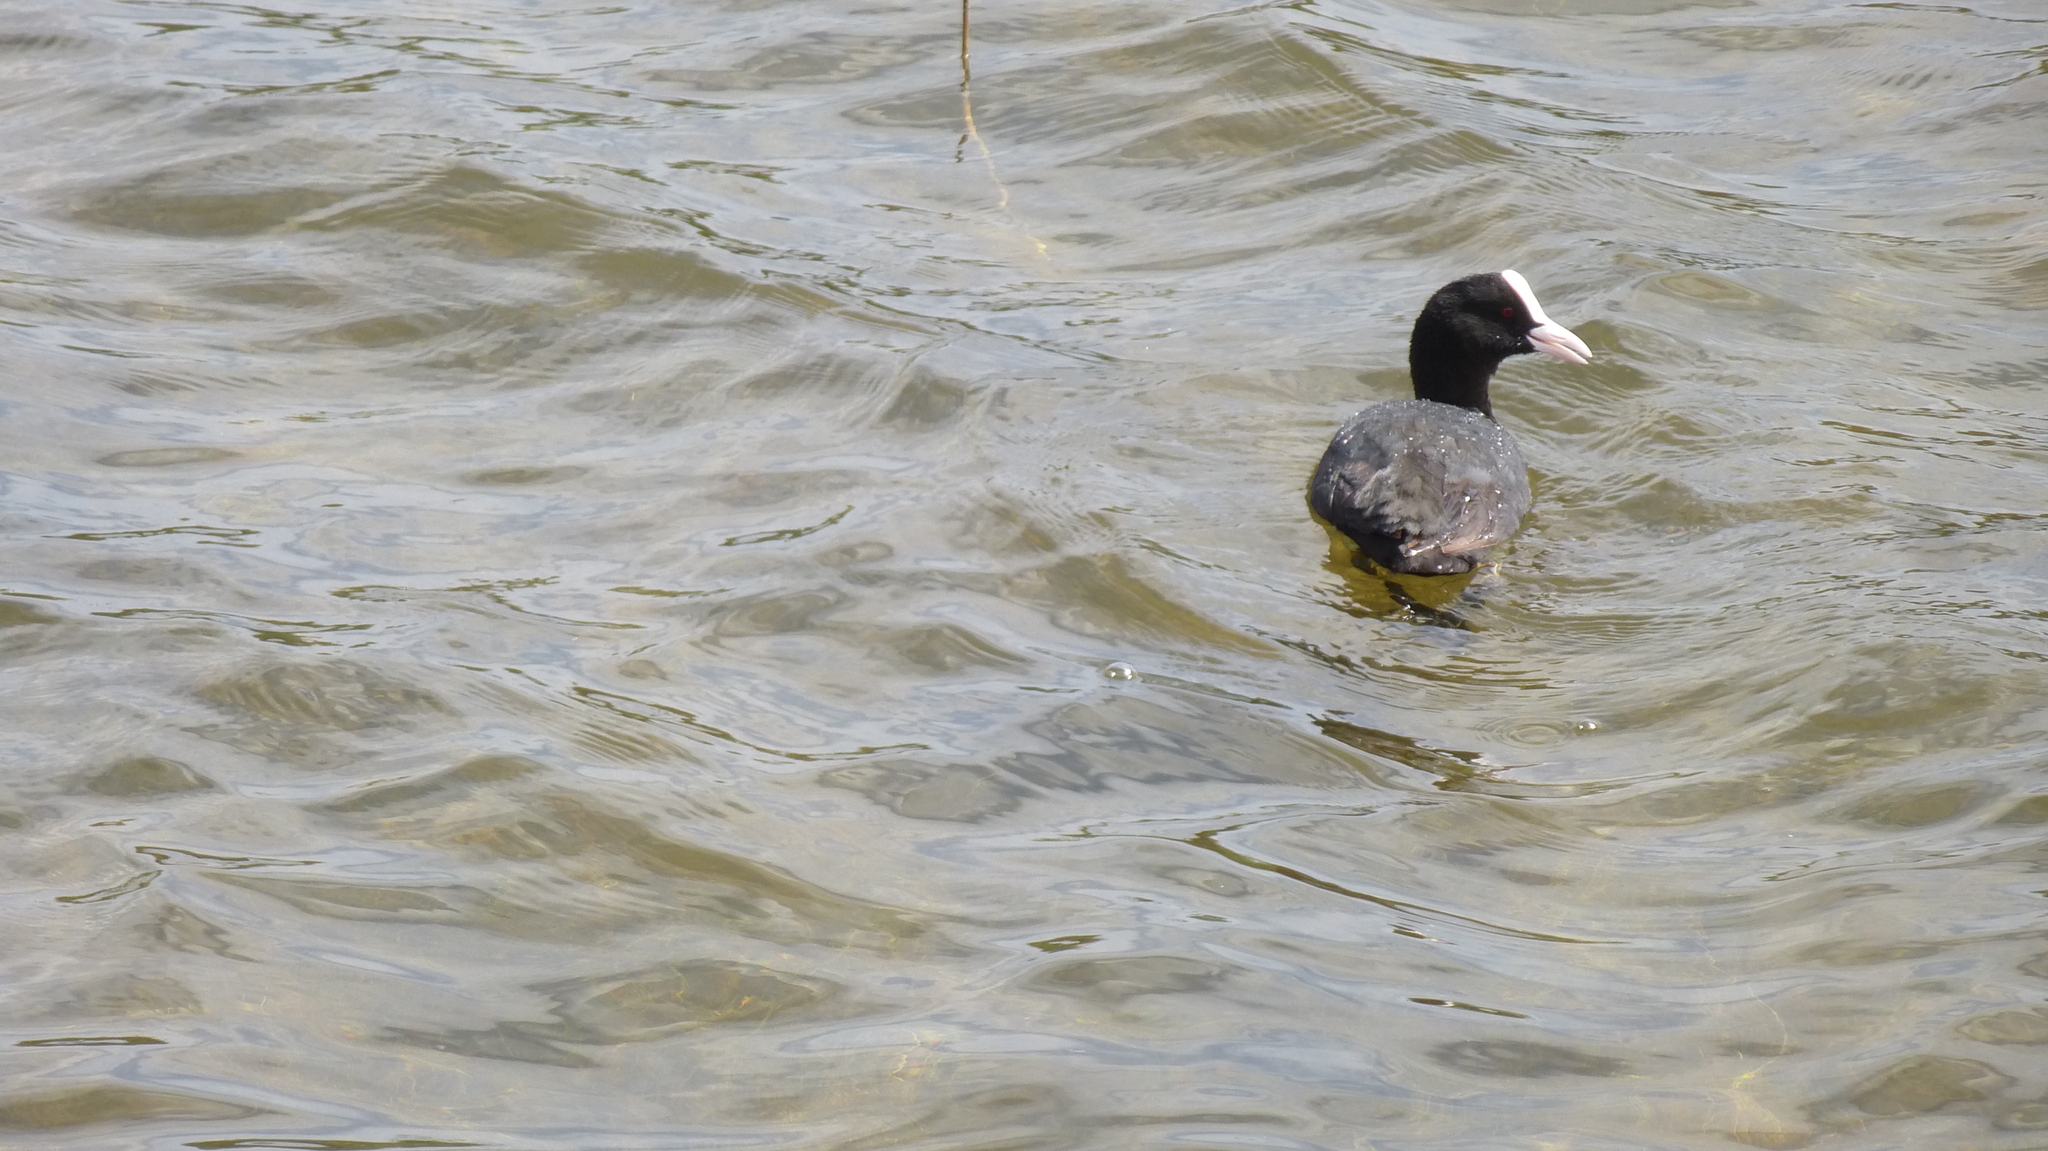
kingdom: Animalia
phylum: Chordata
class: Aves
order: Gruiformes
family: Rallidae
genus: Fulica
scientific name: Fulica atra
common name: Eurasian coot
